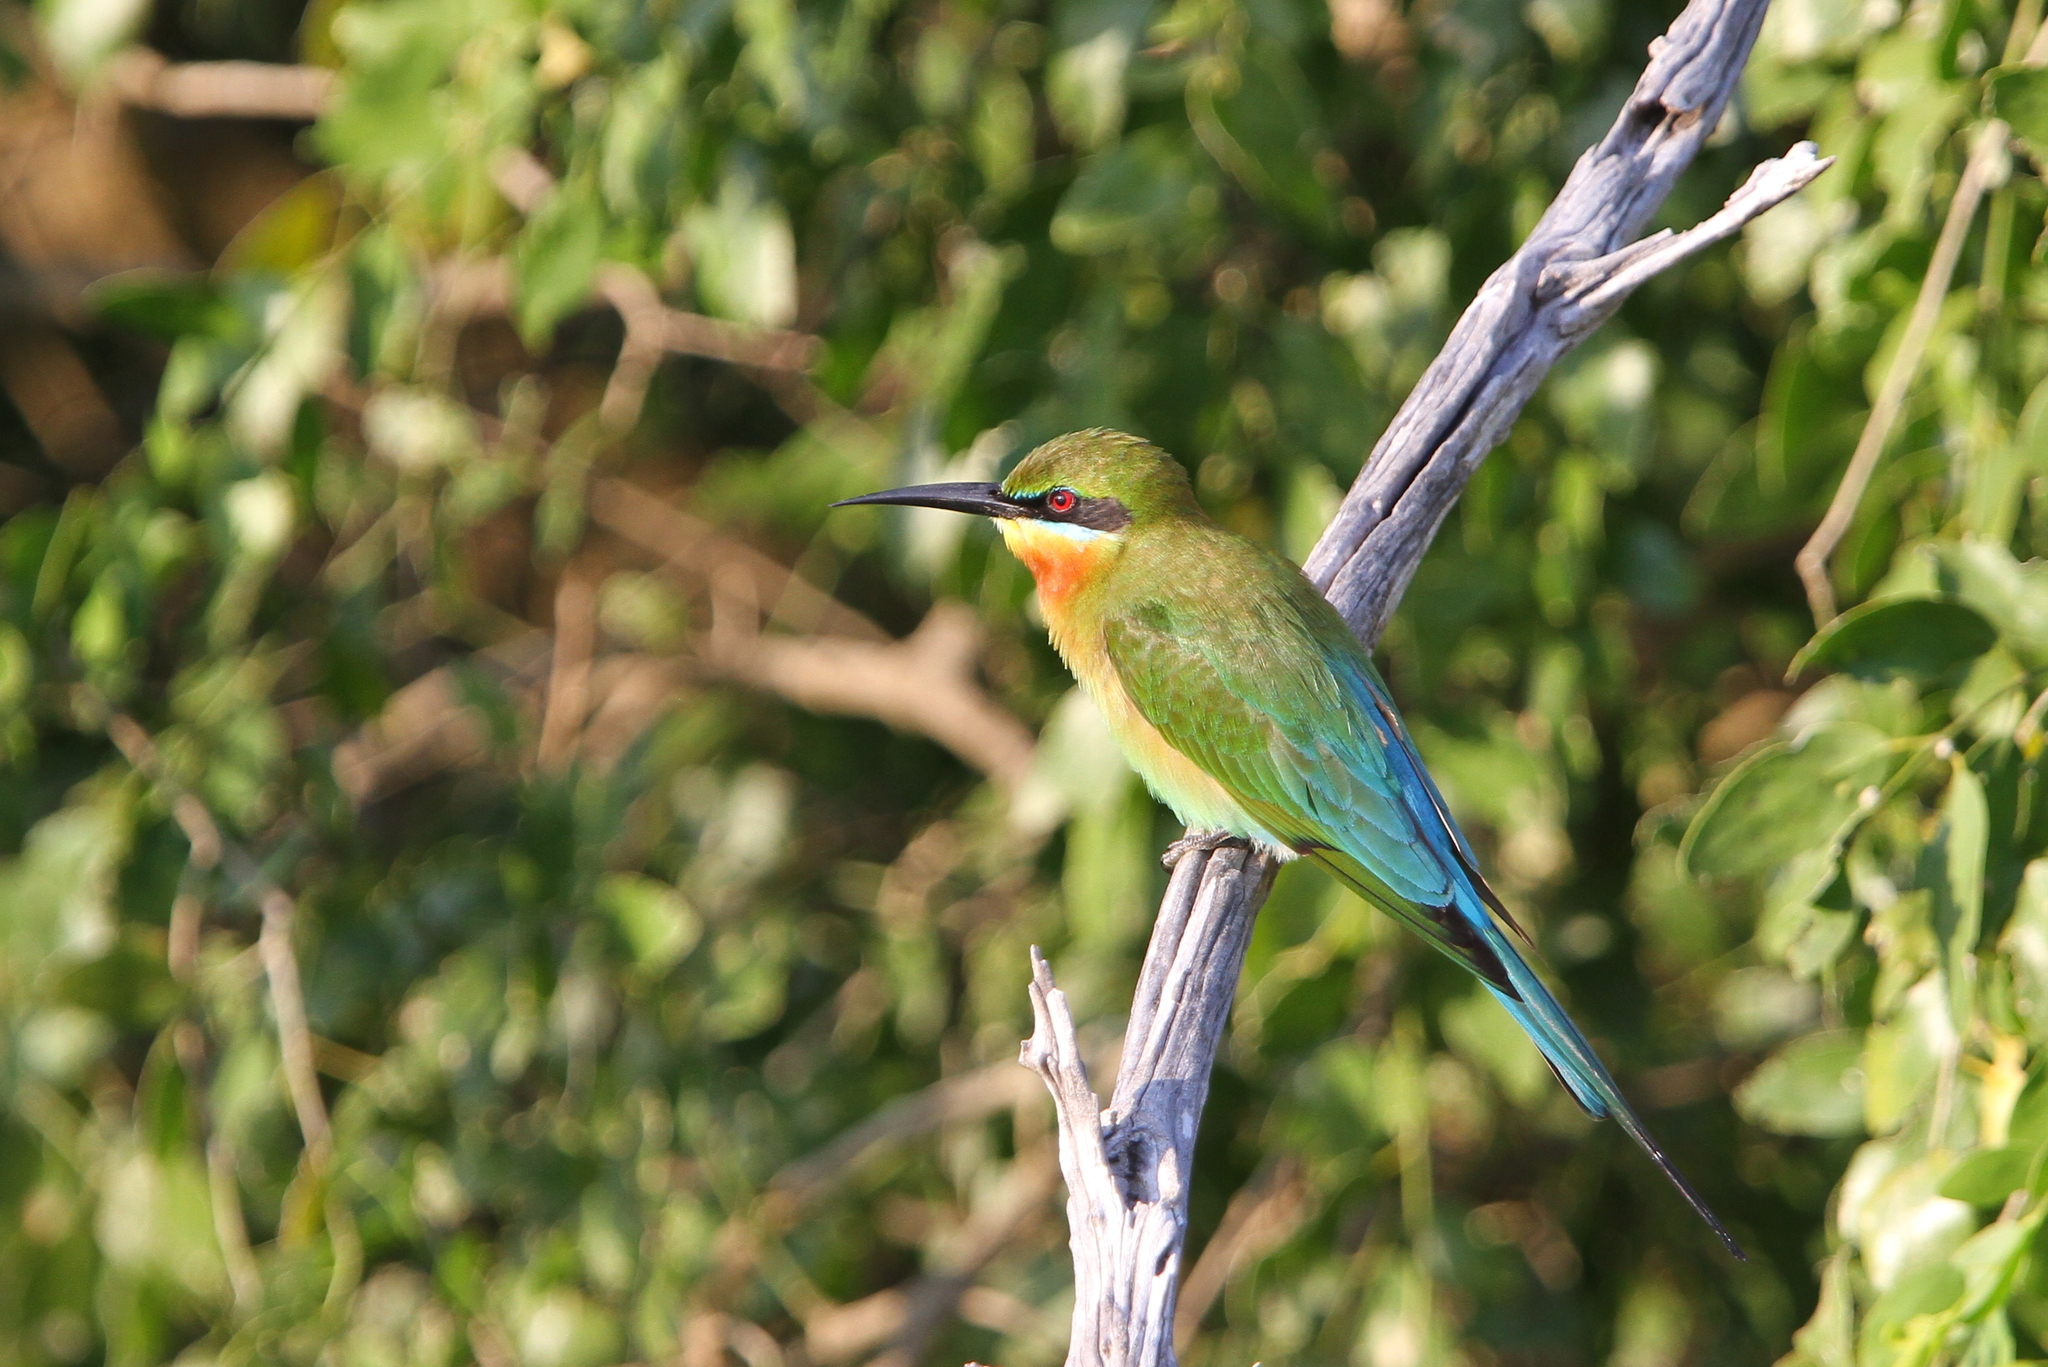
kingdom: Animalia
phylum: Chordata
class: Aves
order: Coraciiformes
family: Meropidae
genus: Merops
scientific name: Merops philippinus
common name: Blue-tailed bee-eater
